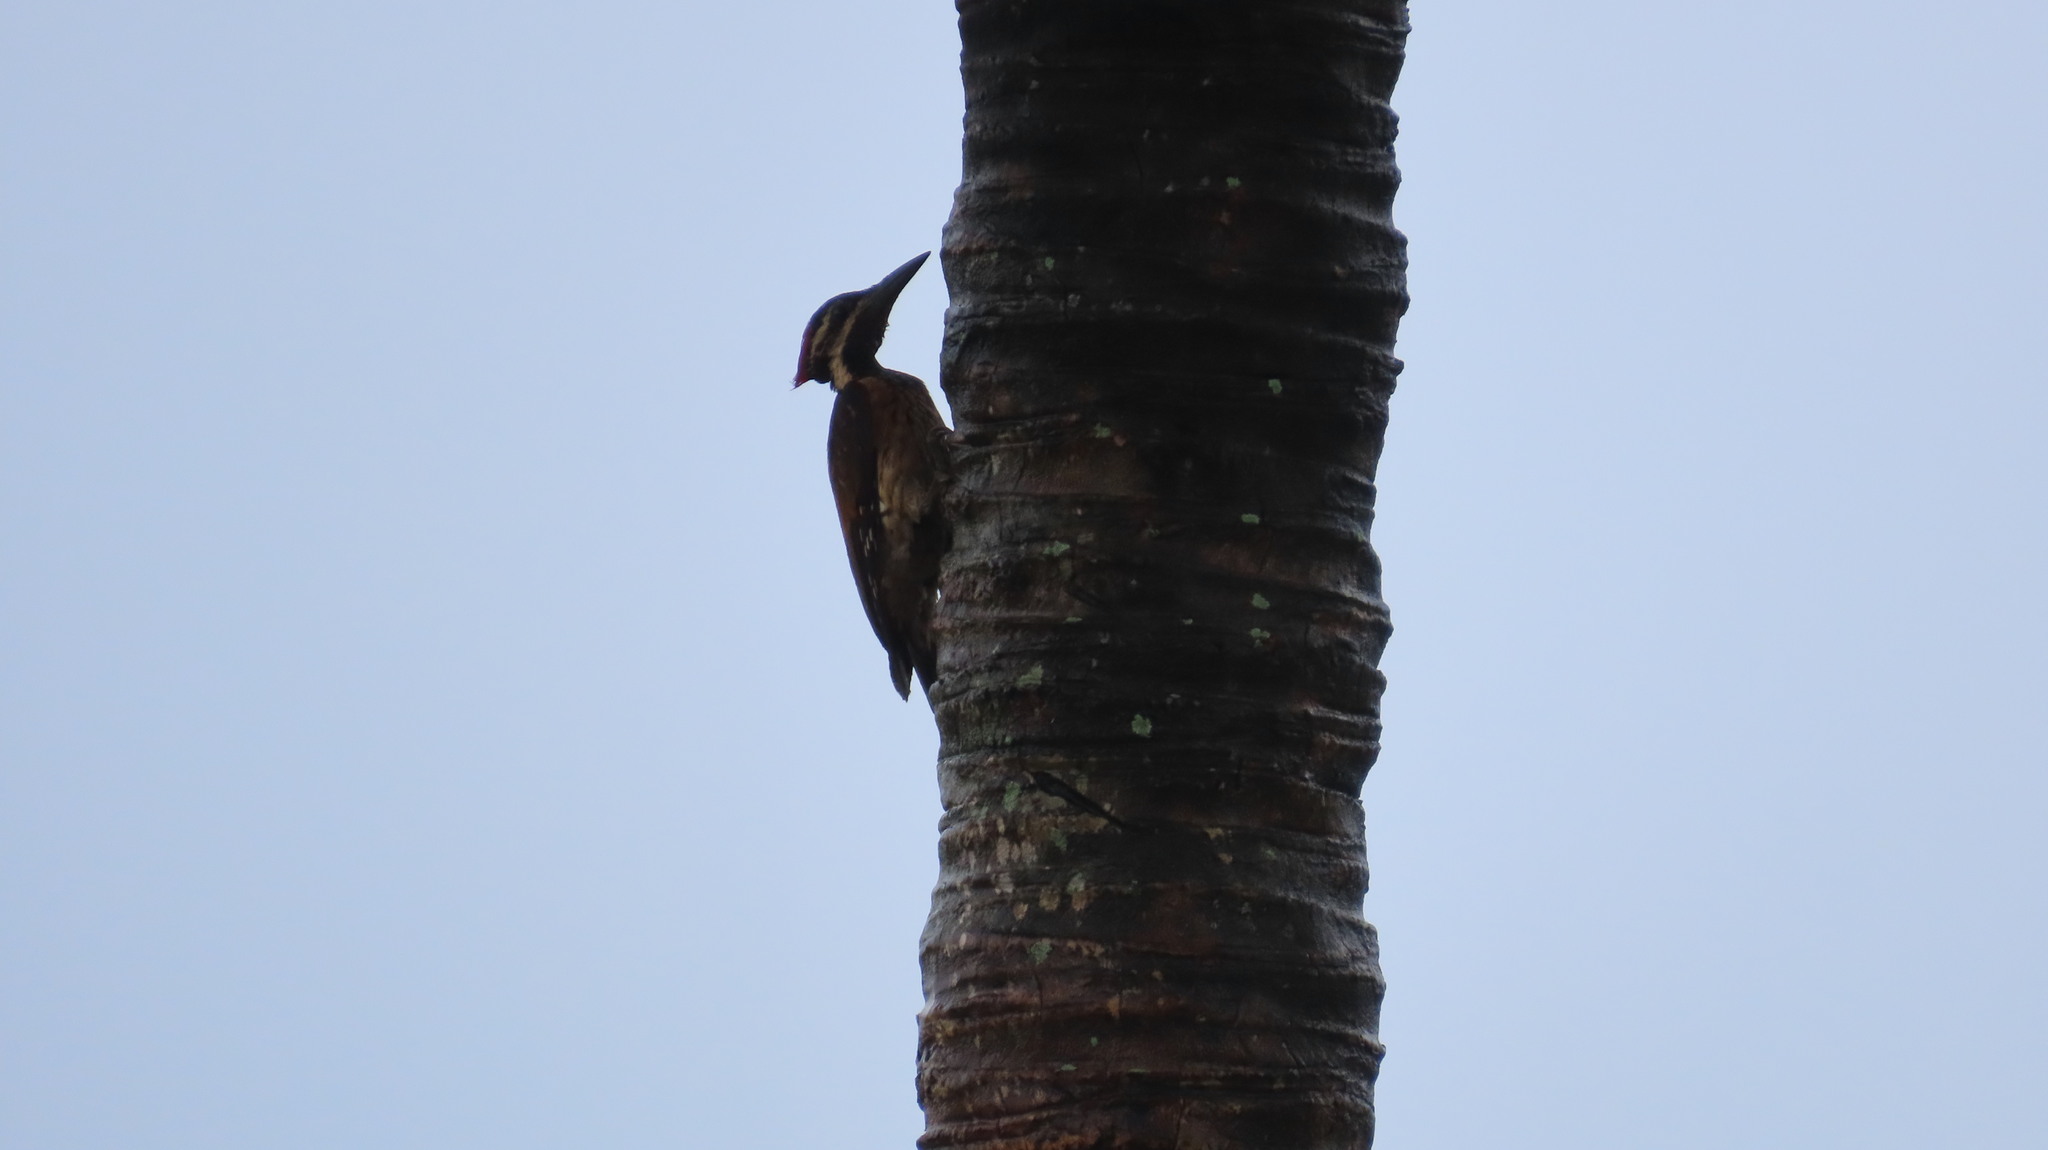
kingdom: Animalia
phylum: Chordata
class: Aves
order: Piciformes
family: Picidae
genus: Dinopium
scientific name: Dinopium benghalense
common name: Black-rumped flameback
